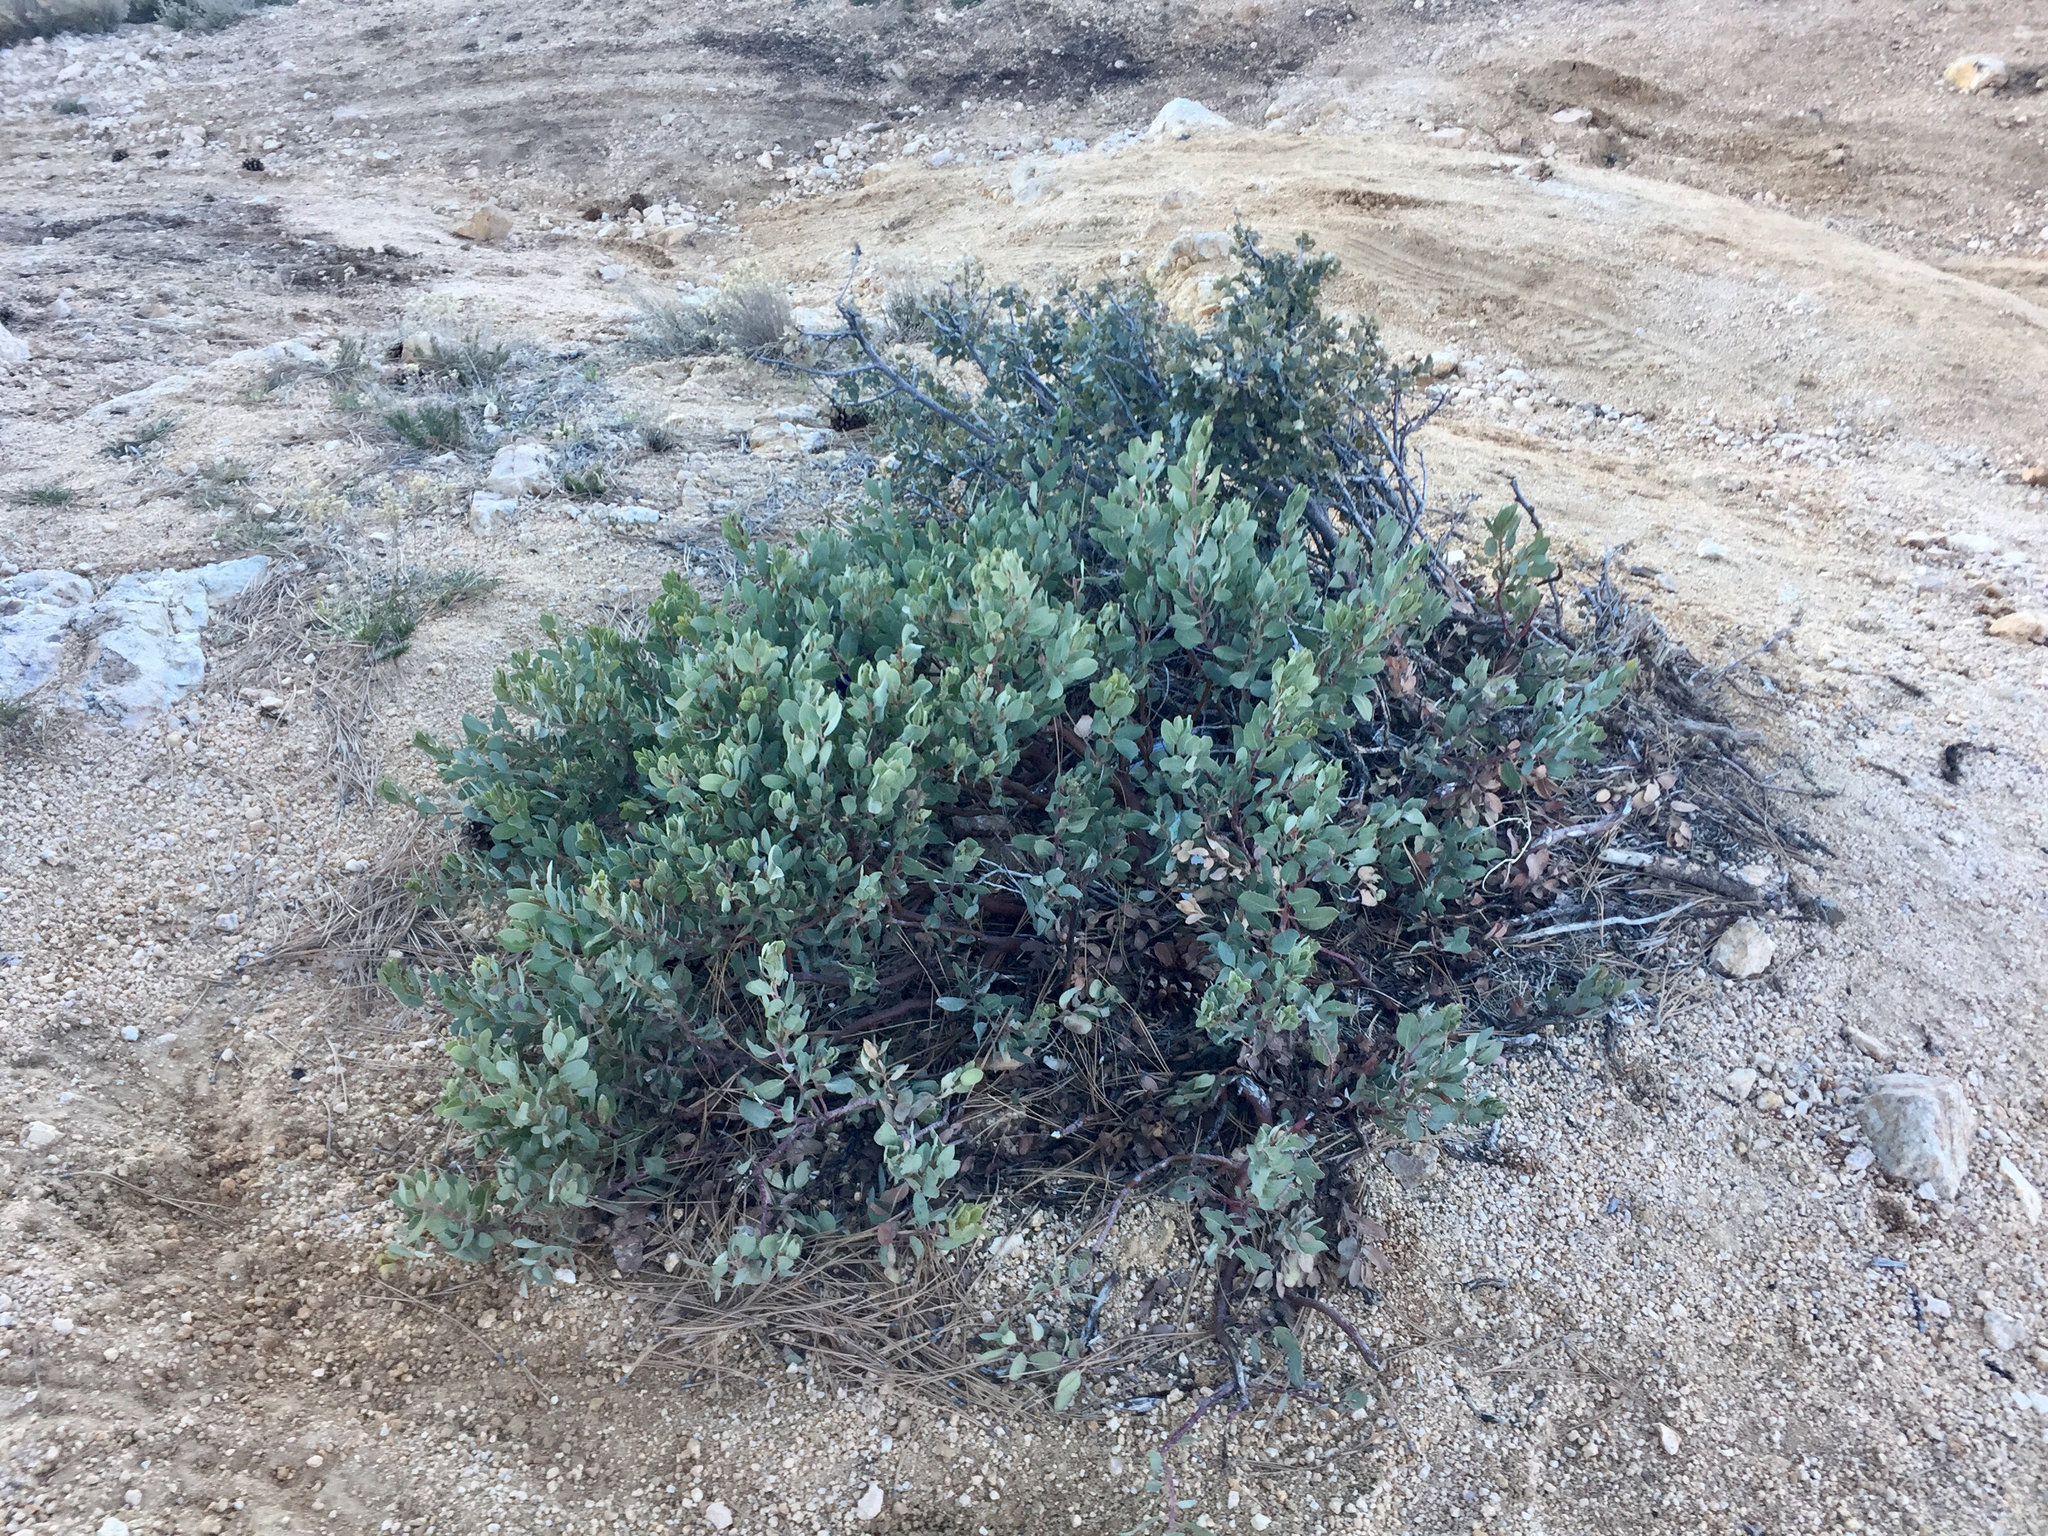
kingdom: Plantae
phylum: Tracheophyta
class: Magnoliopsida
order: Ericales
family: Ericaceae
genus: Arctostaphylos
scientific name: Arctostaphylos pringlei
